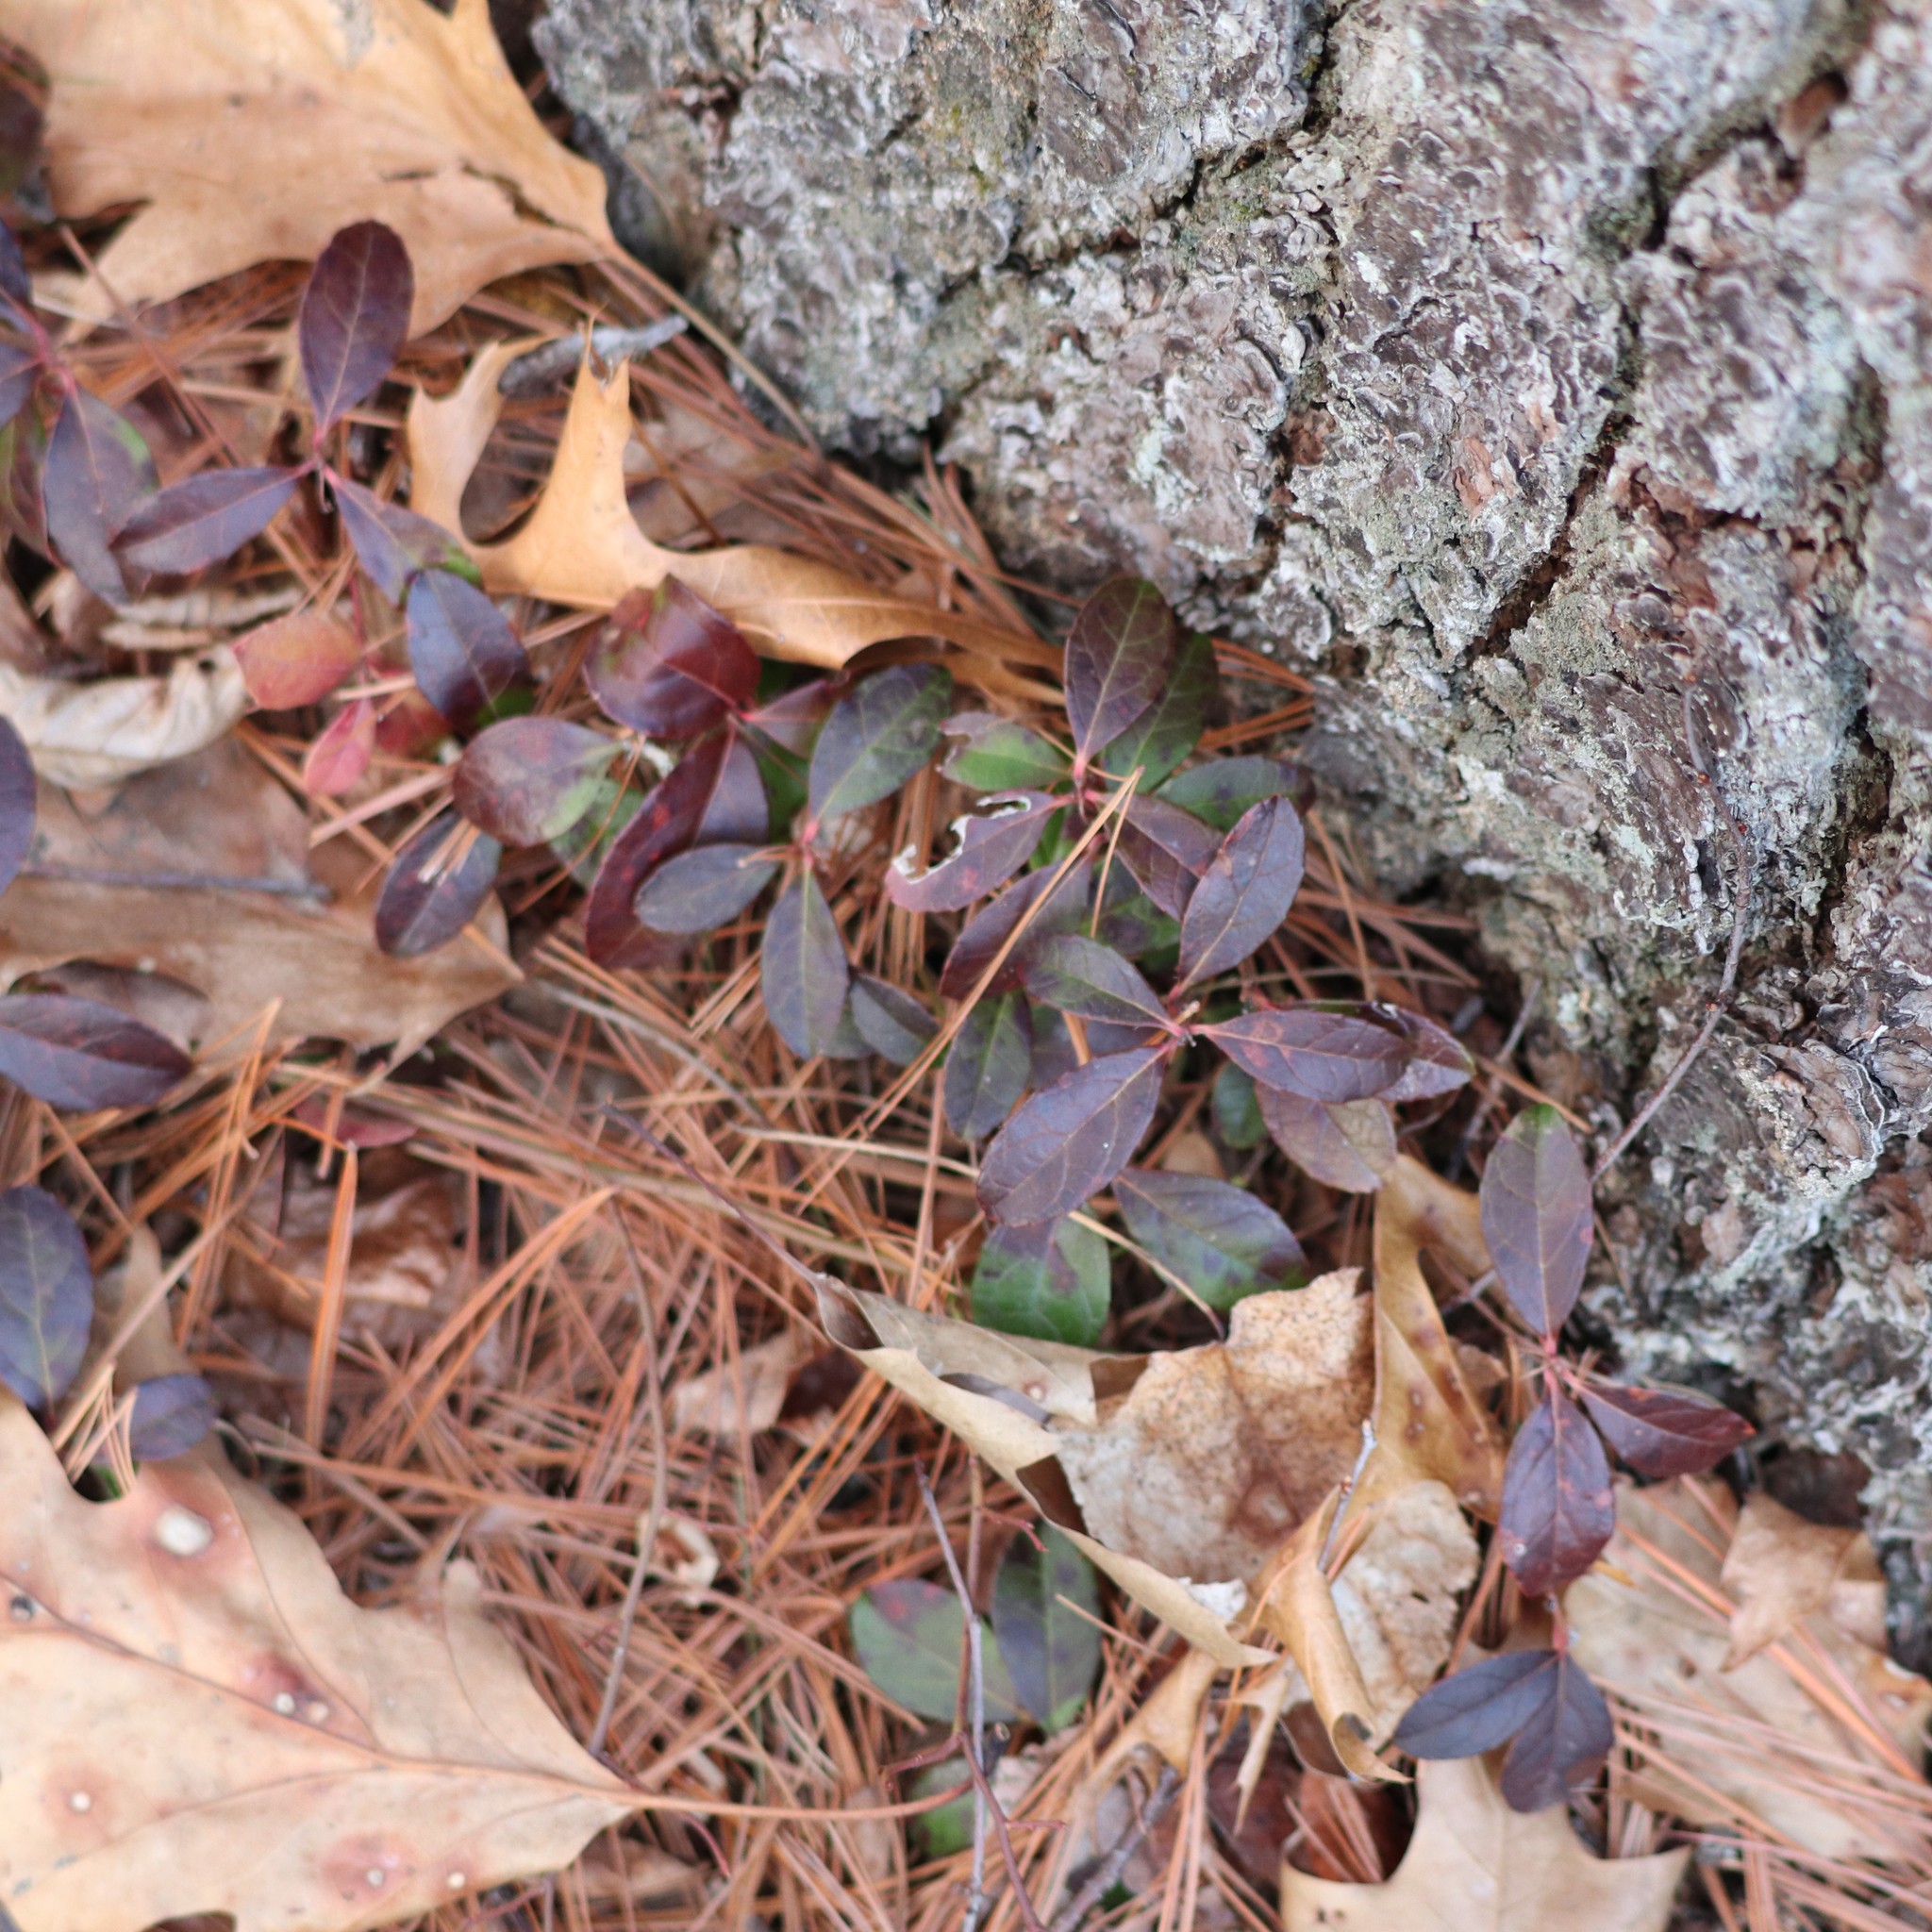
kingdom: Plantae
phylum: Tracheophyta
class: Magnoliopsida
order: Ericales
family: Ericaceae
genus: Gaultheria
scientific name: Gaultheria procumbens
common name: Checkerberry
